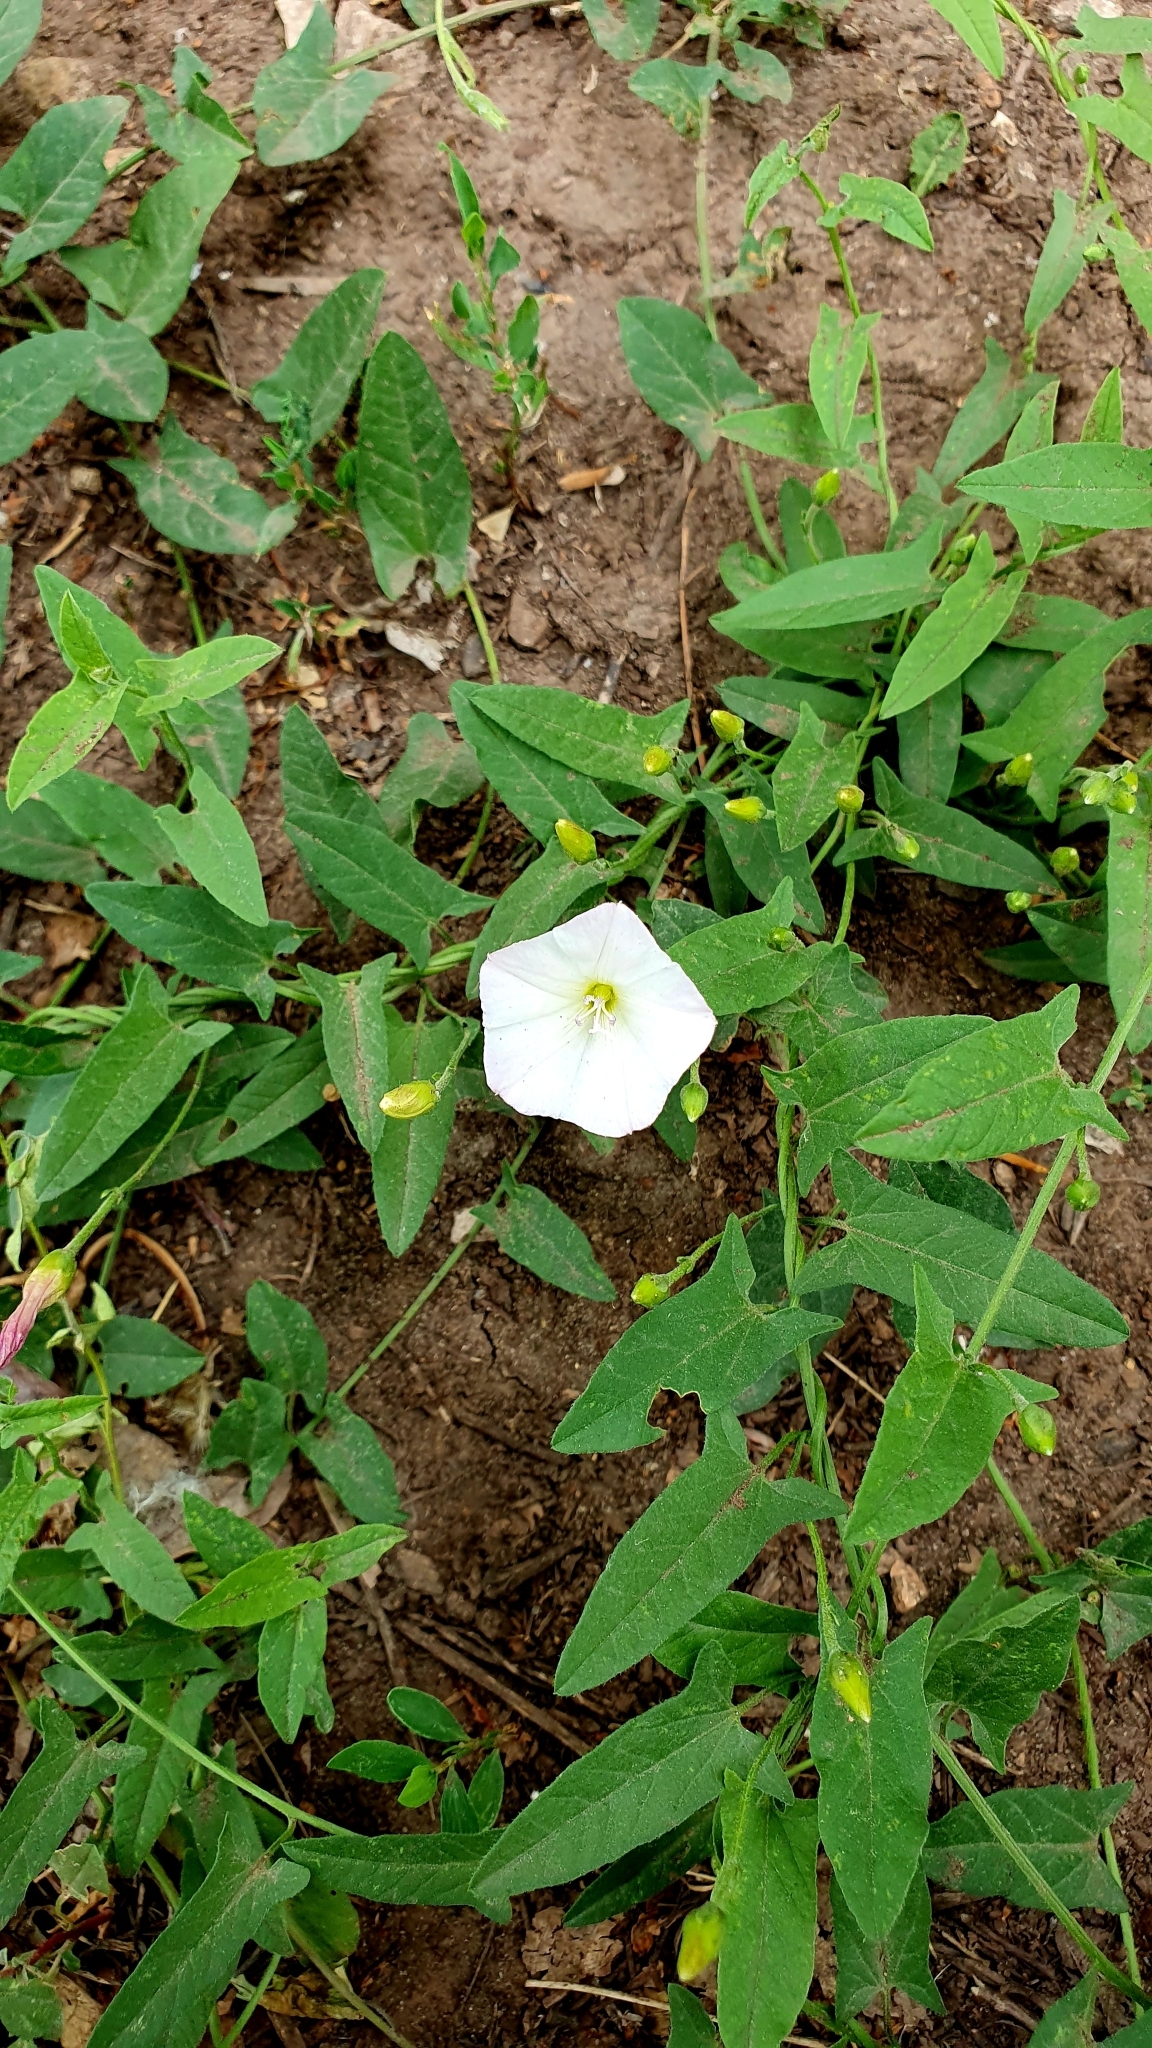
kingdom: Plantae
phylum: Tracheophyta
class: Magnoliopsida
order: Solanales
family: Convolvulaceae
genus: Convolvulus
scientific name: Convolvulus arvensis
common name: Field bindweed
